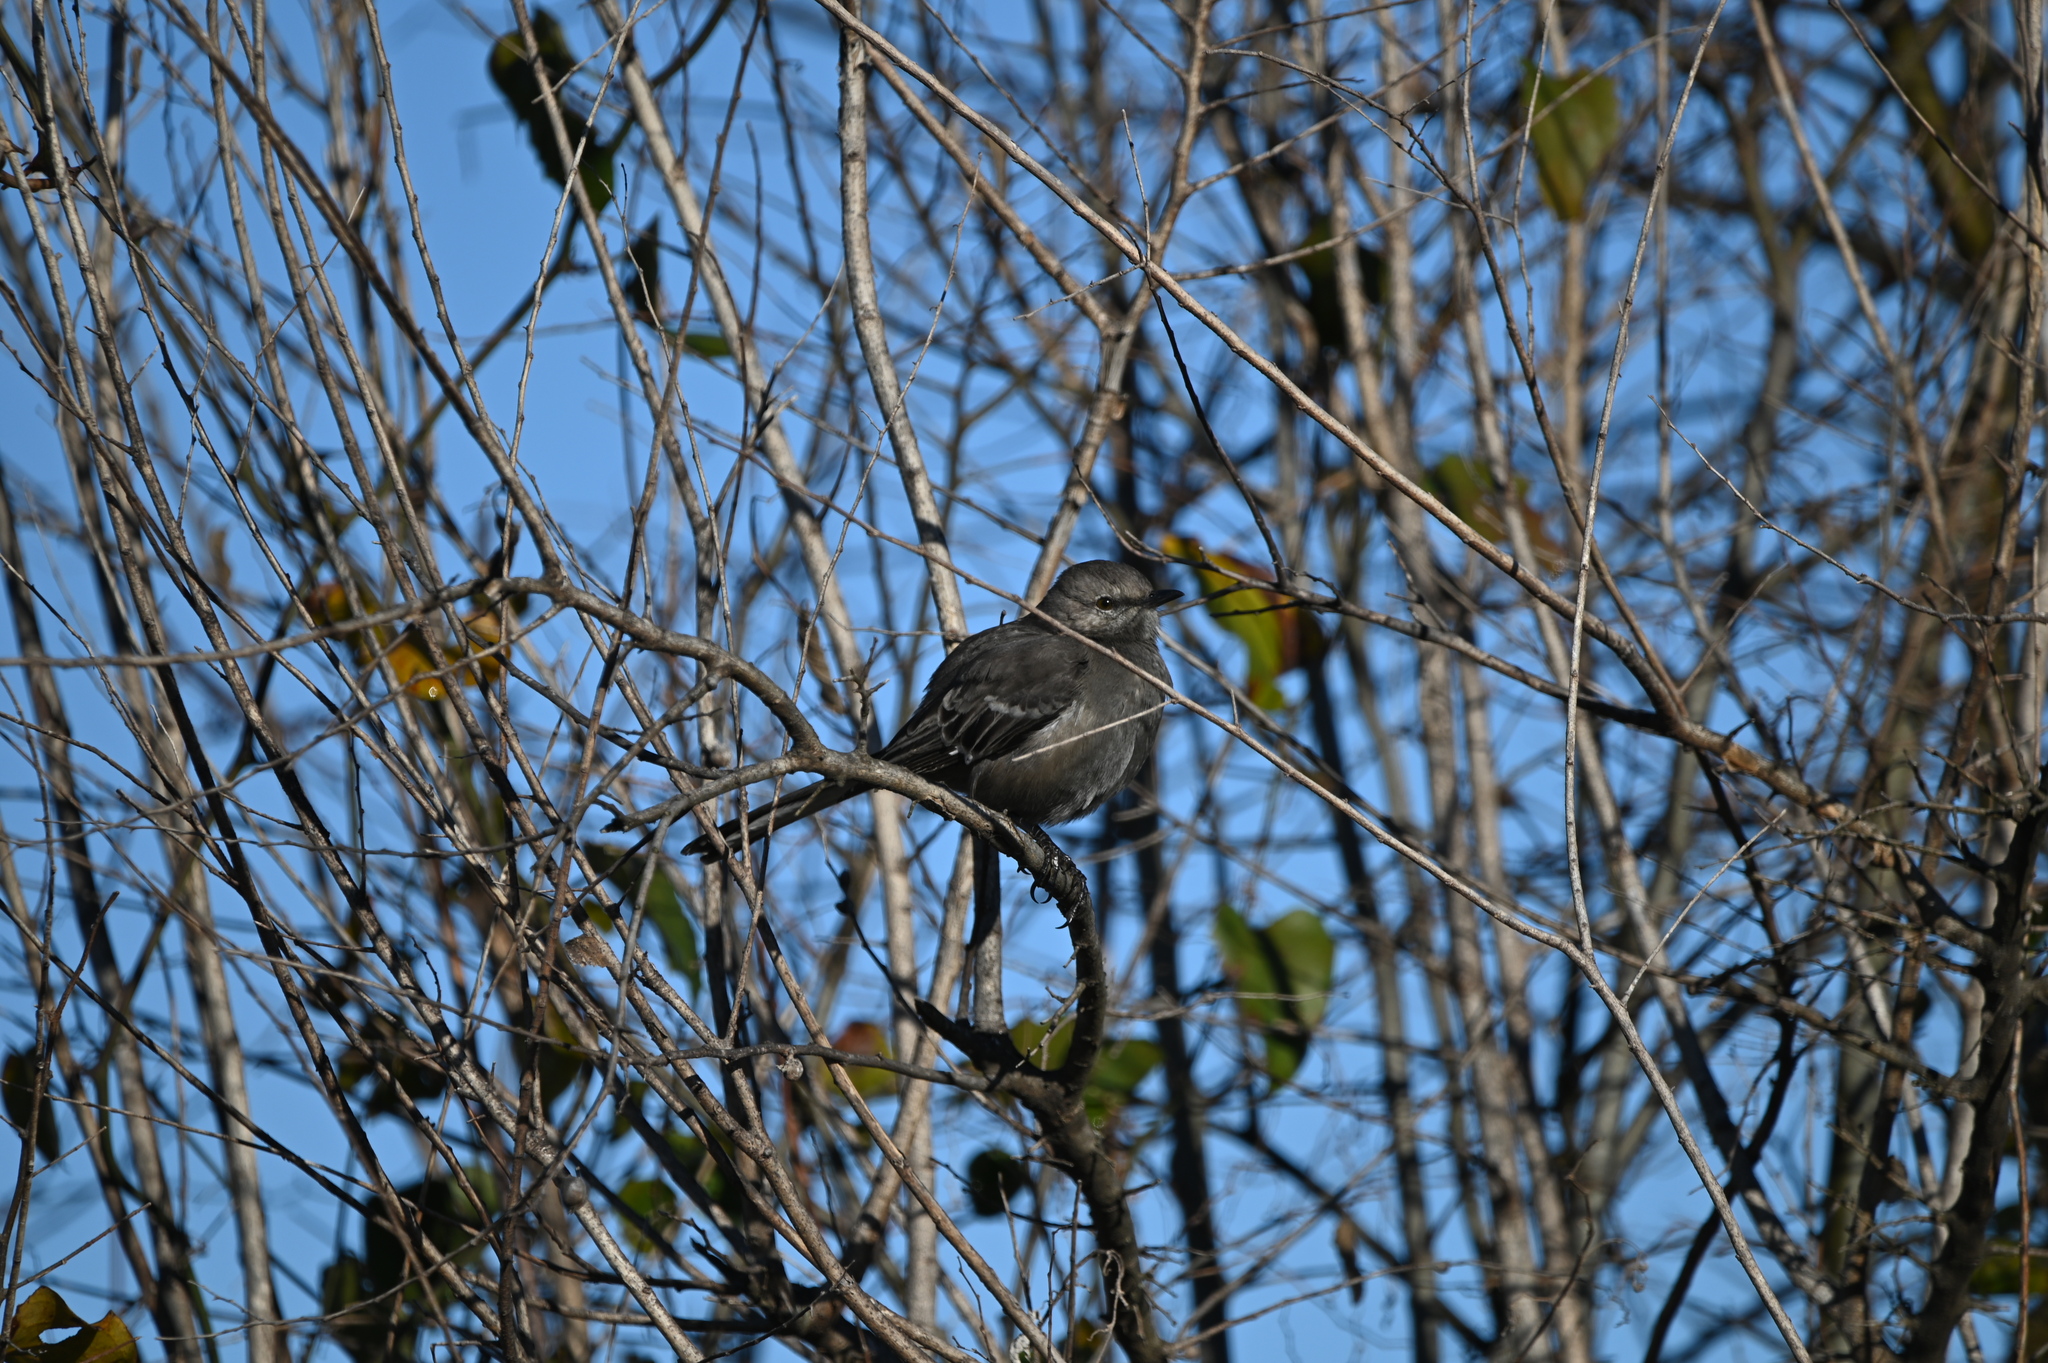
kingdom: Animalia
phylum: Chordata
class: Aves
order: Passeriformes
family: Mimidae
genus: Mimus
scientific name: Mimus polyglottos
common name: Northern mockingbird
